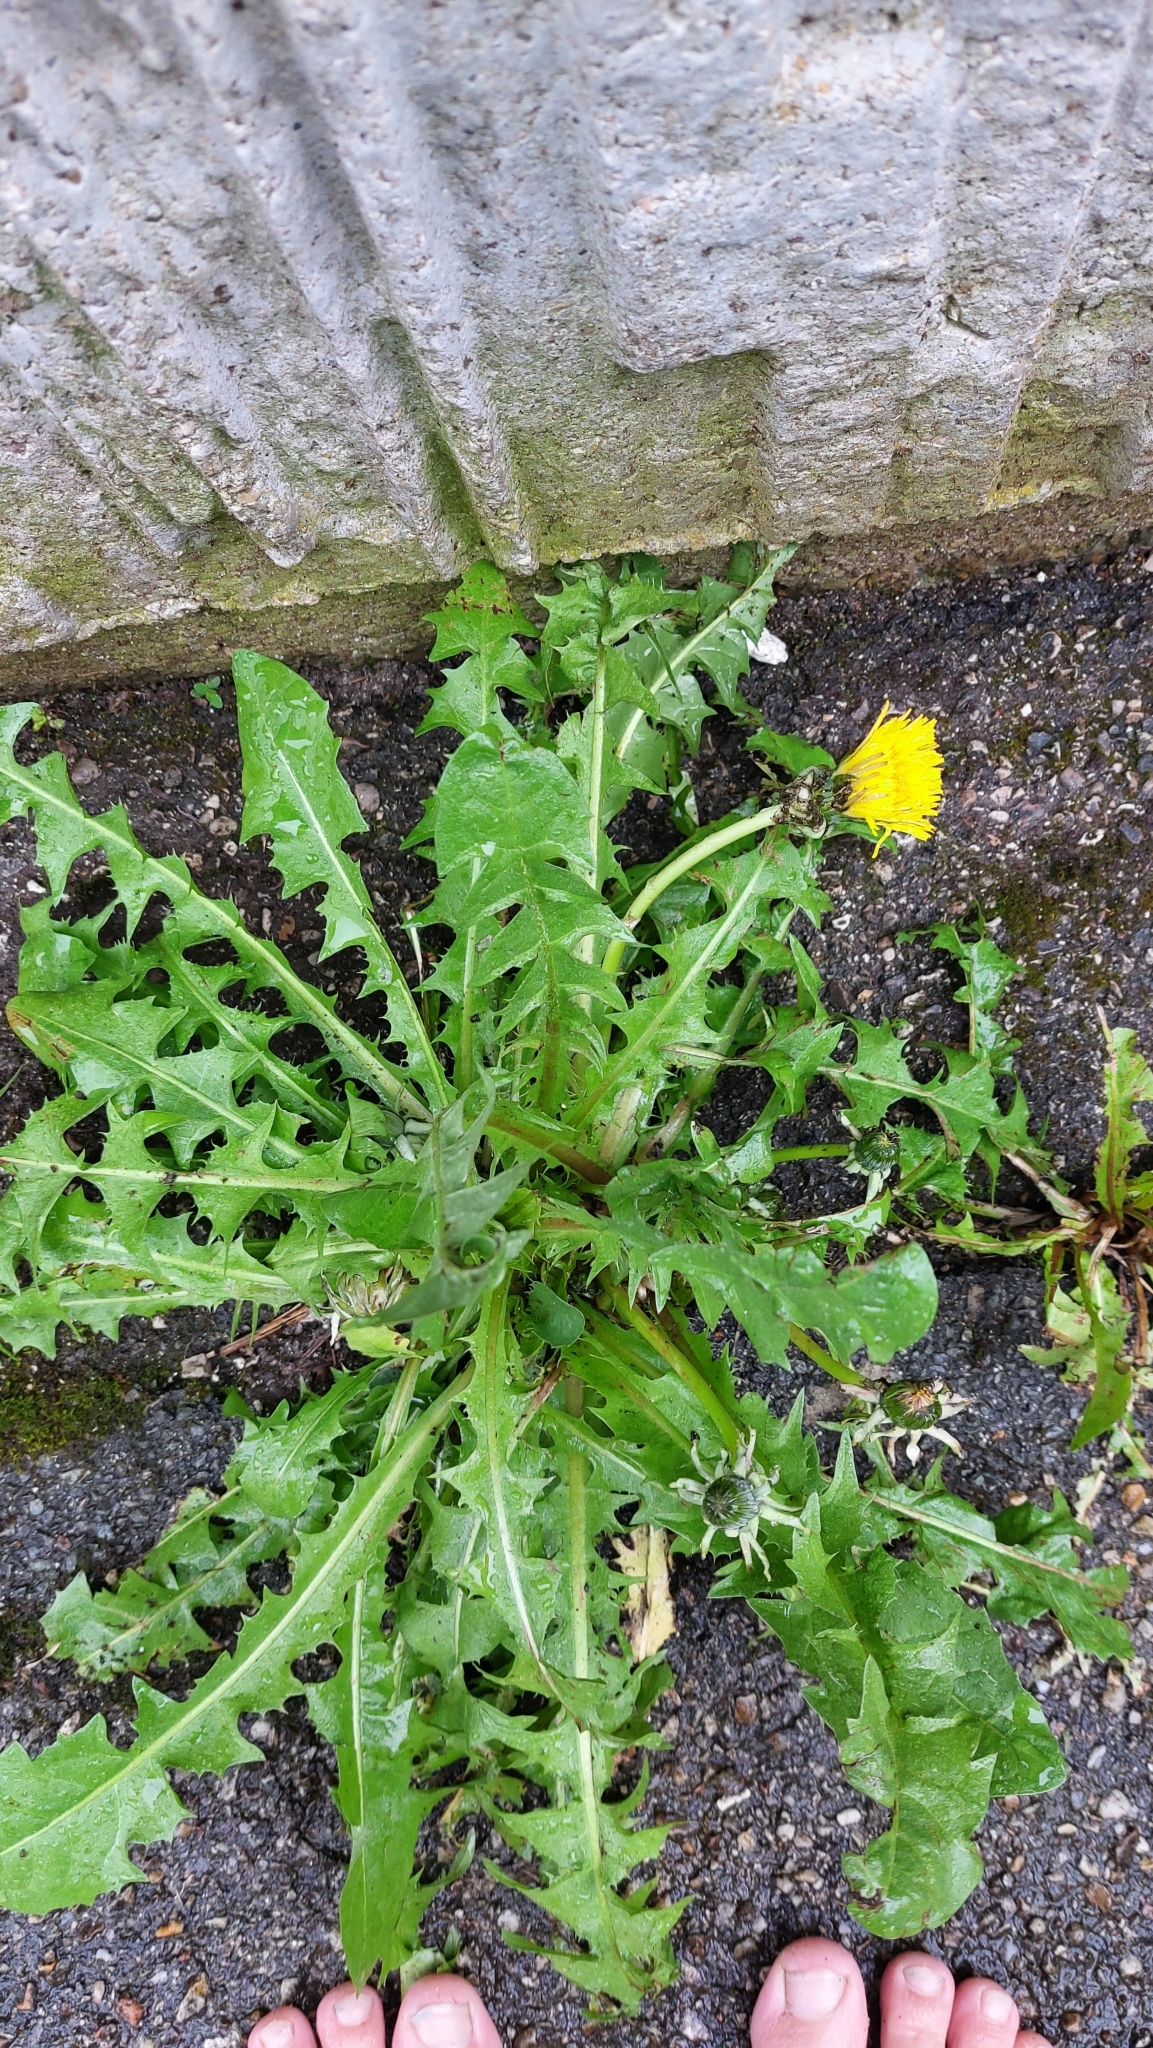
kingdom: Plantae
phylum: Tracheophyta
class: Magnoliopsida
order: Asterales
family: Asteraceae
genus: Taraxacum
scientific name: Taraxacum
